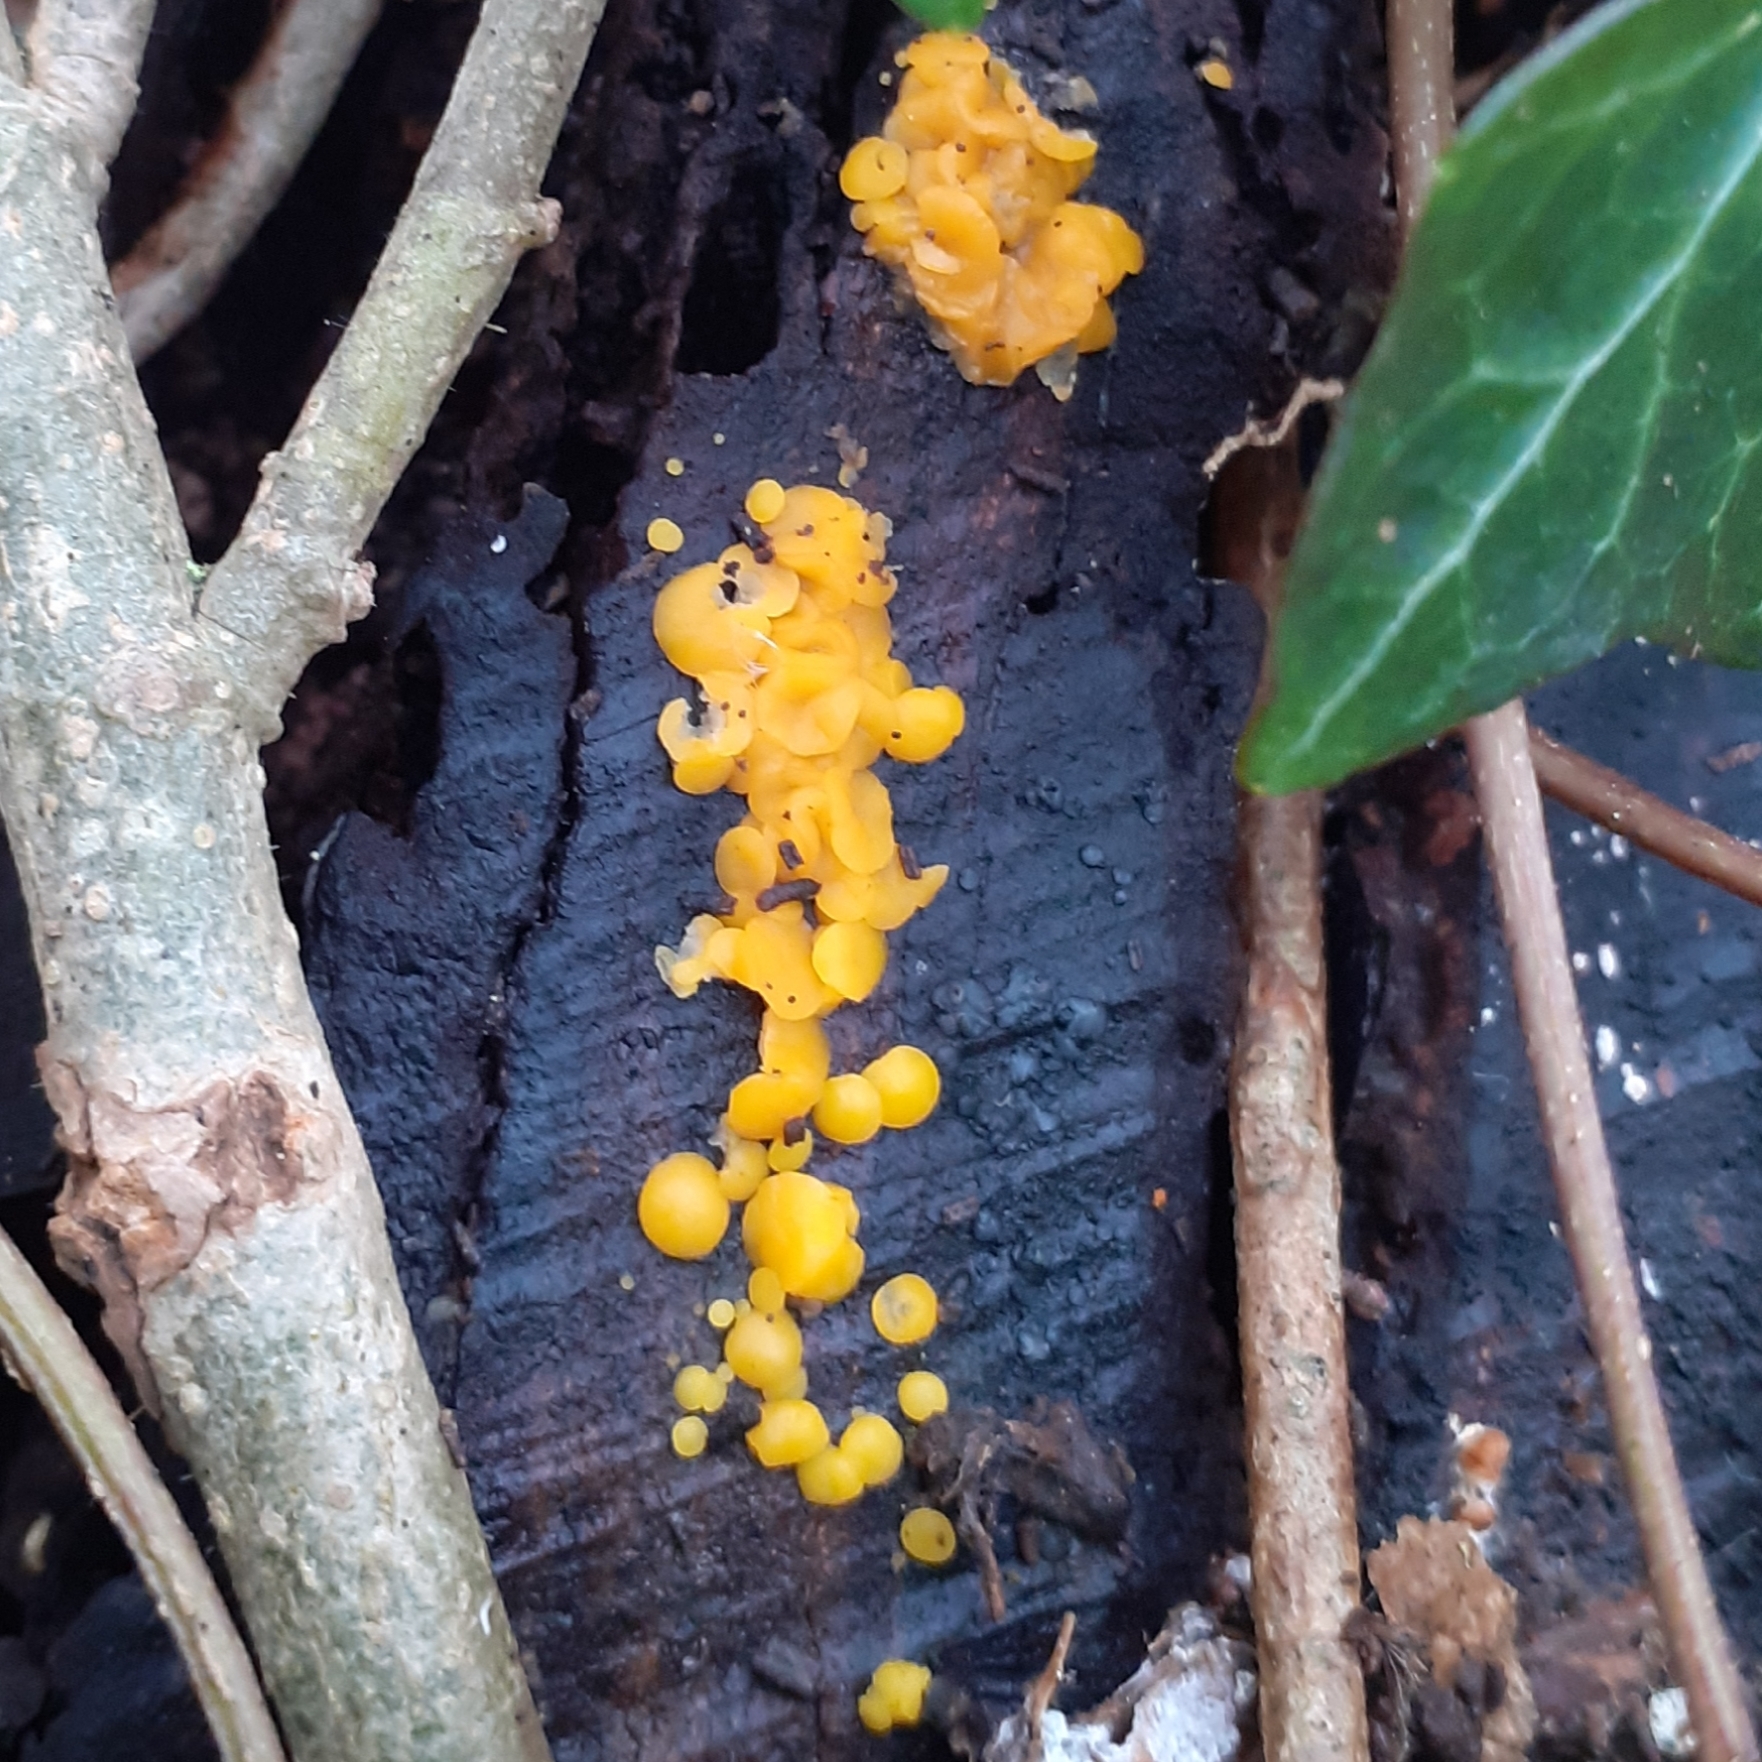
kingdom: Fungi
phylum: Ascomycota
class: Leotiomycetes
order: Helotiales
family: Pezizellaceae
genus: Calycina
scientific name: Calycina citrina
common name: Yellow fairy cups
